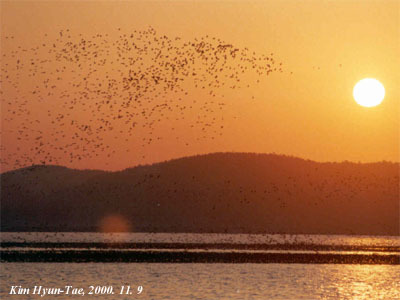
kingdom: Animalia
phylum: Chordata
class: Aves
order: Anseriformes
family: Anatidae
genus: Sibirionetta
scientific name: Sibirionetta formosa
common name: Baikal teal
